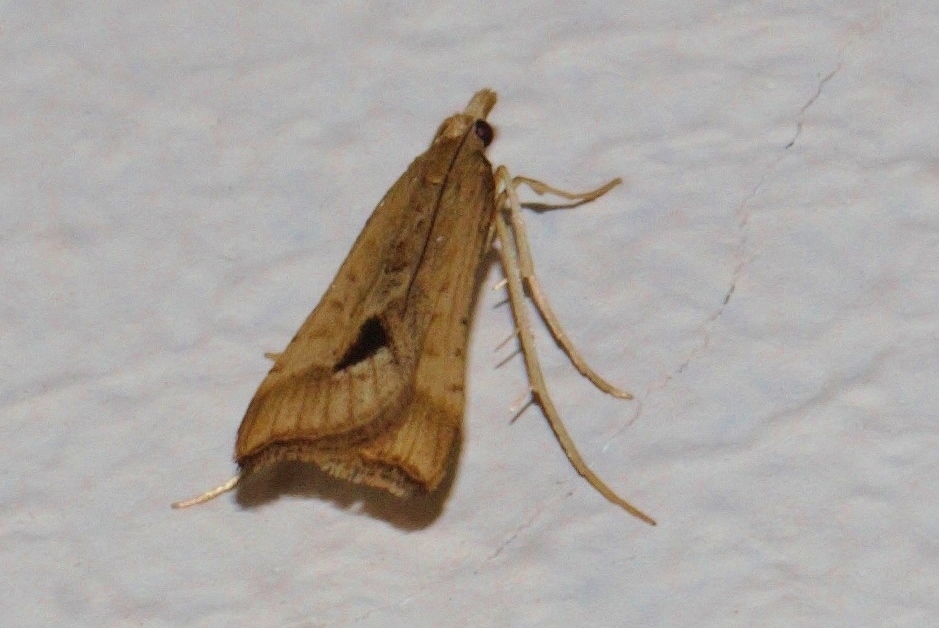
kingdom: Animalia
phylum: Arthropoda
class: Insecta
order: Lepidoptera
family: Crambidae
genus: Diasemia
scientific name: Diasemia monostigma
